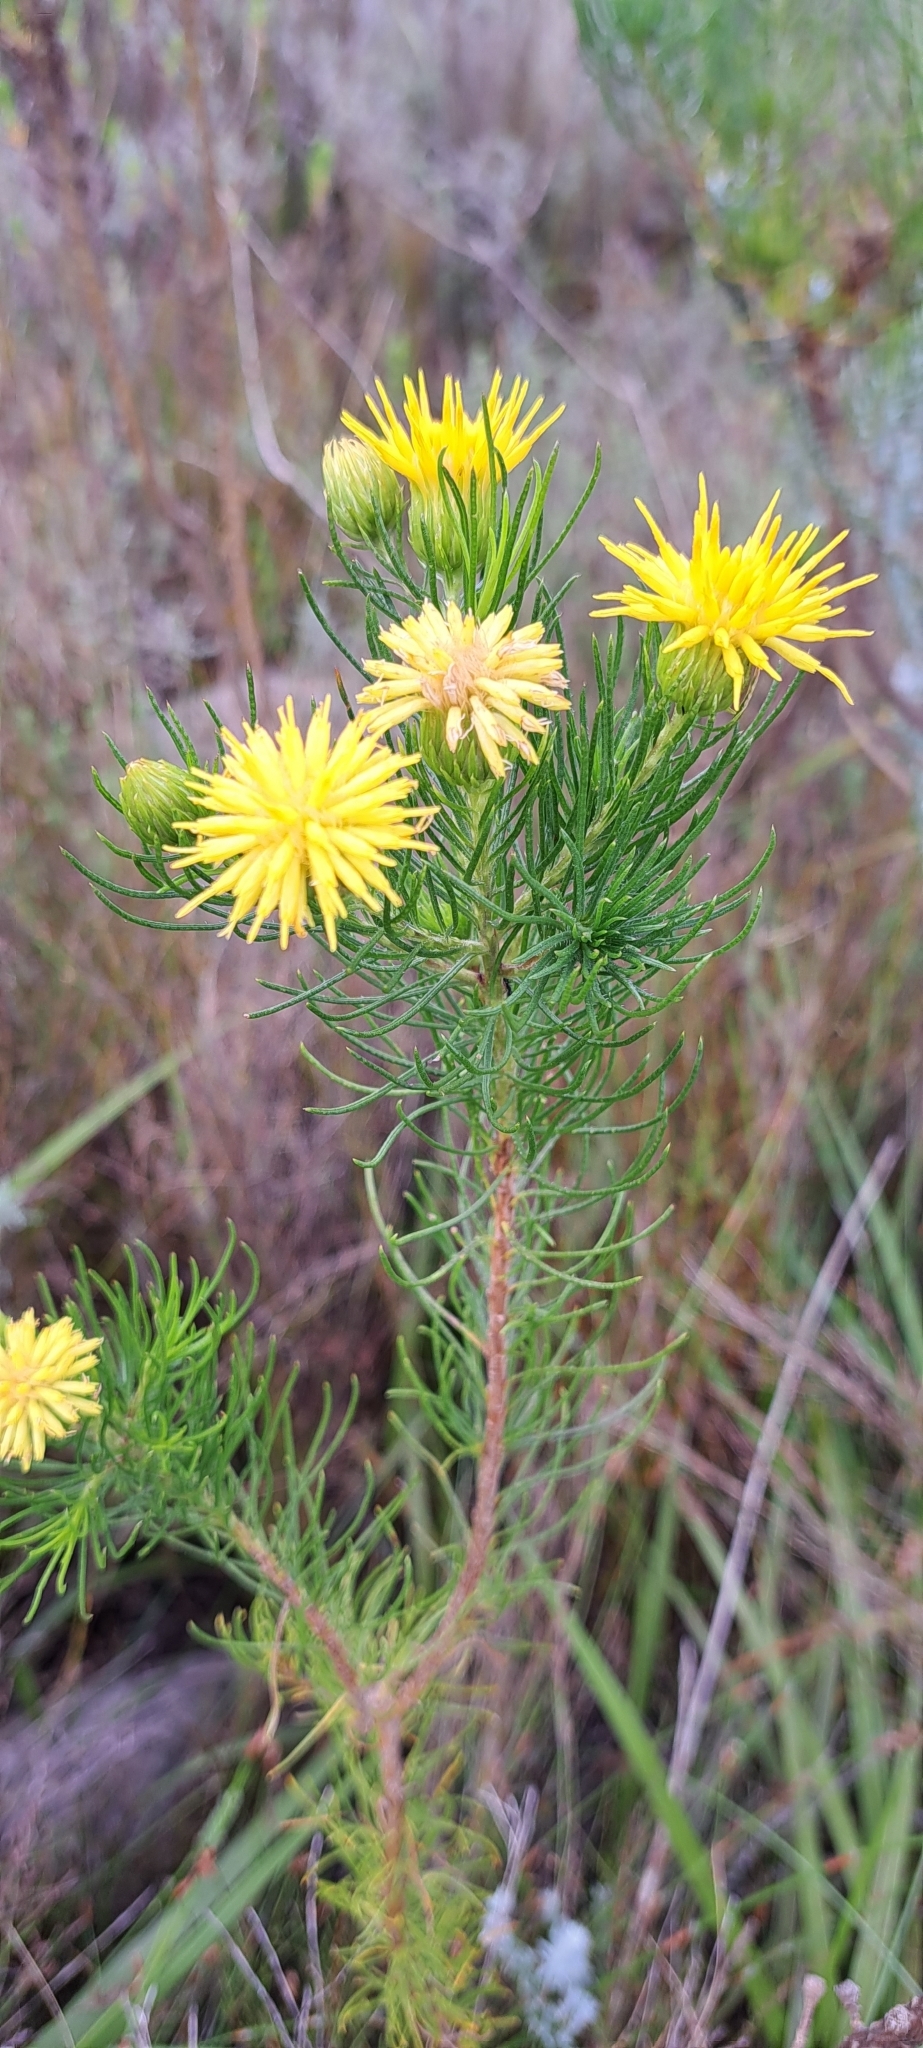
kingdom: Plantae
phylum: Tracheophyta
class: Magnoliopsida
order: Asterales
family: Asteraceae
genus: Pteronia
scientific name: Pteronia camphorata
